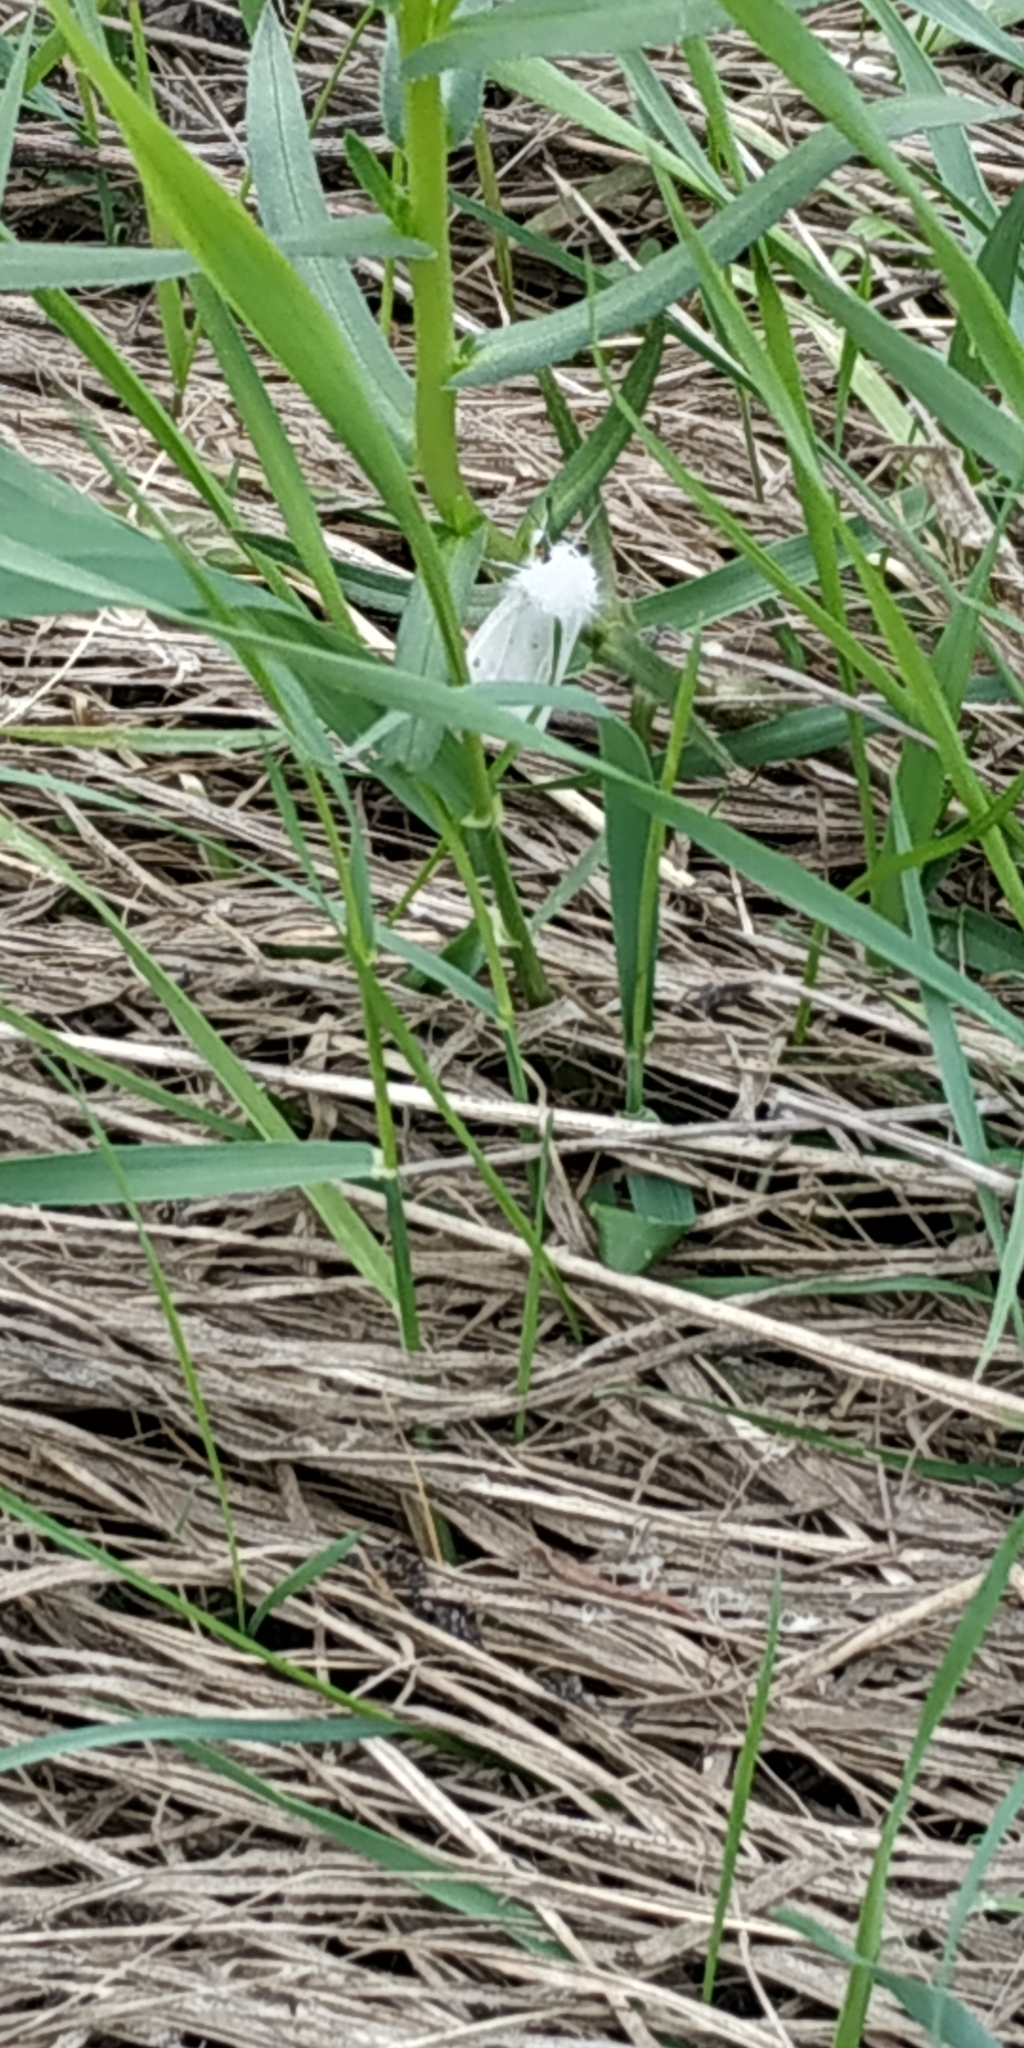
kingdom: Animalia
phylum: Arthropoda
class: Insecta
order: Lepidoptera
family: Erebidae
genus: Spilosoma
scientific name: Spilosoma urticae
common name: Water ermine
